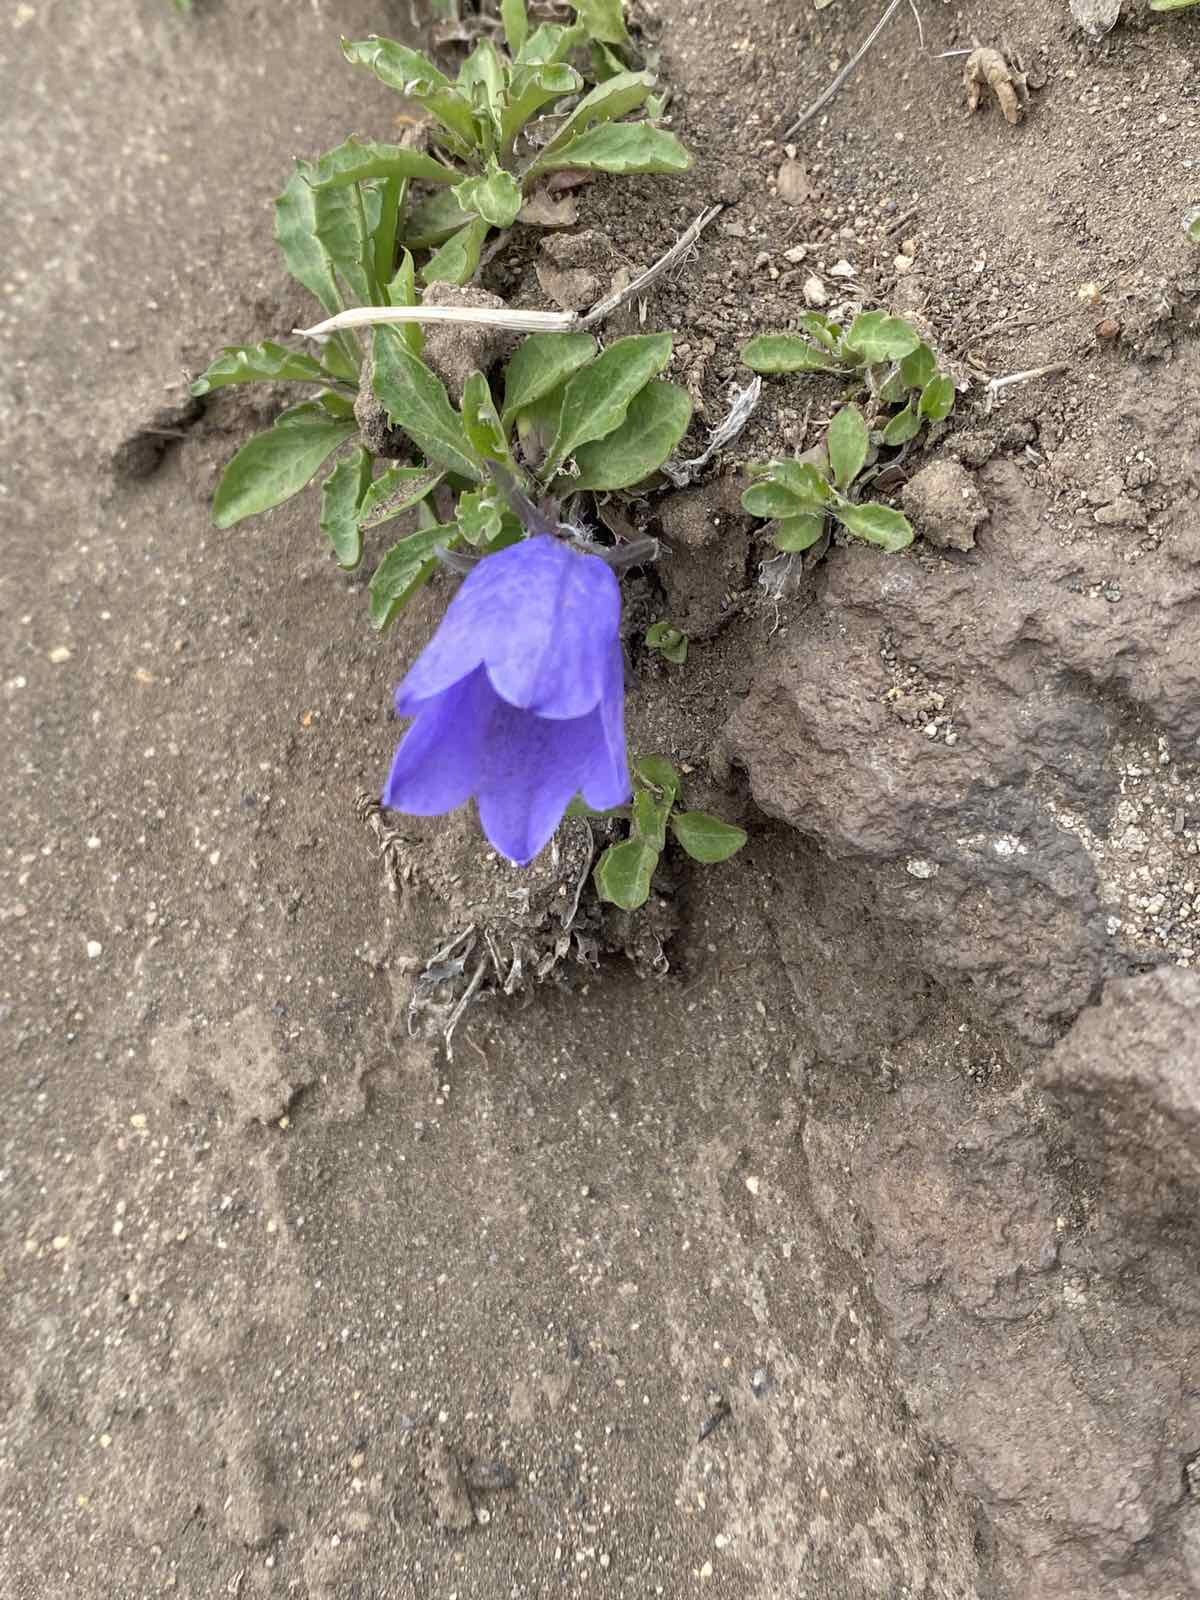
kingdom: Plantae
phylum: Tracheophyta
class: Magnoliopsida
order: Asterales
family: Campanulaceae
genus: Campanula
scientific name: Campanula lasiocarpa
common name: Mountain harebell
